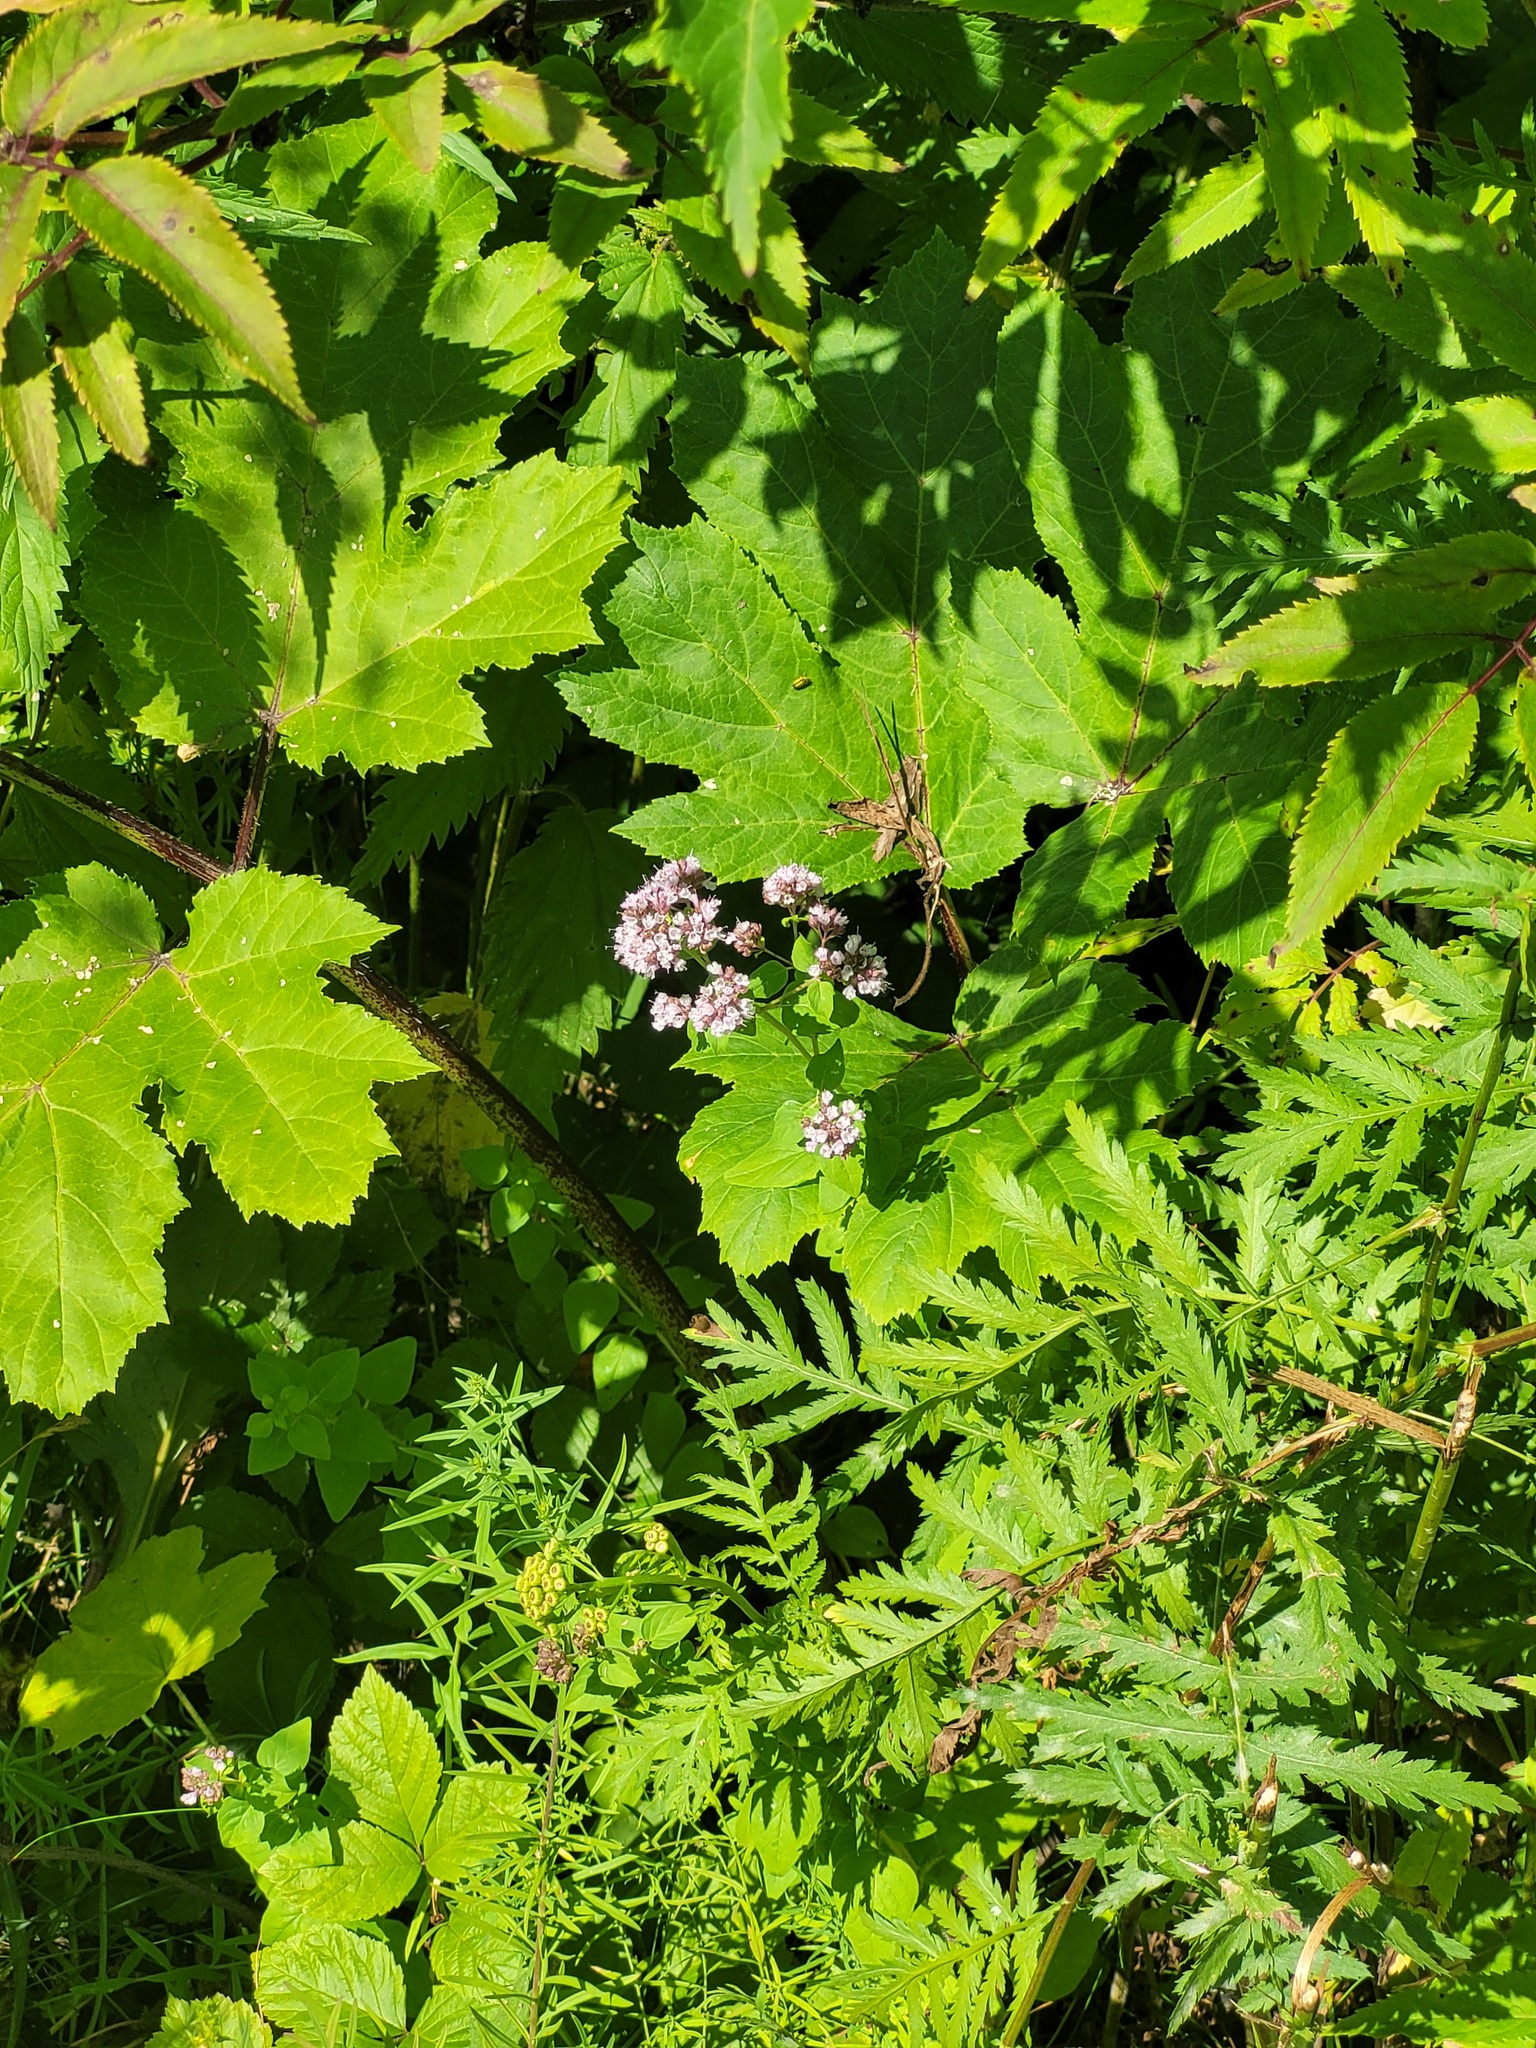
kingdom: Plantae
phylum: Tracheophyta
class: Magnoliopsida
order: Lamiales
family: Lamiaceae
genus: Origanum
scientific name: Origanum vulgare
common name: Wild marjoram
